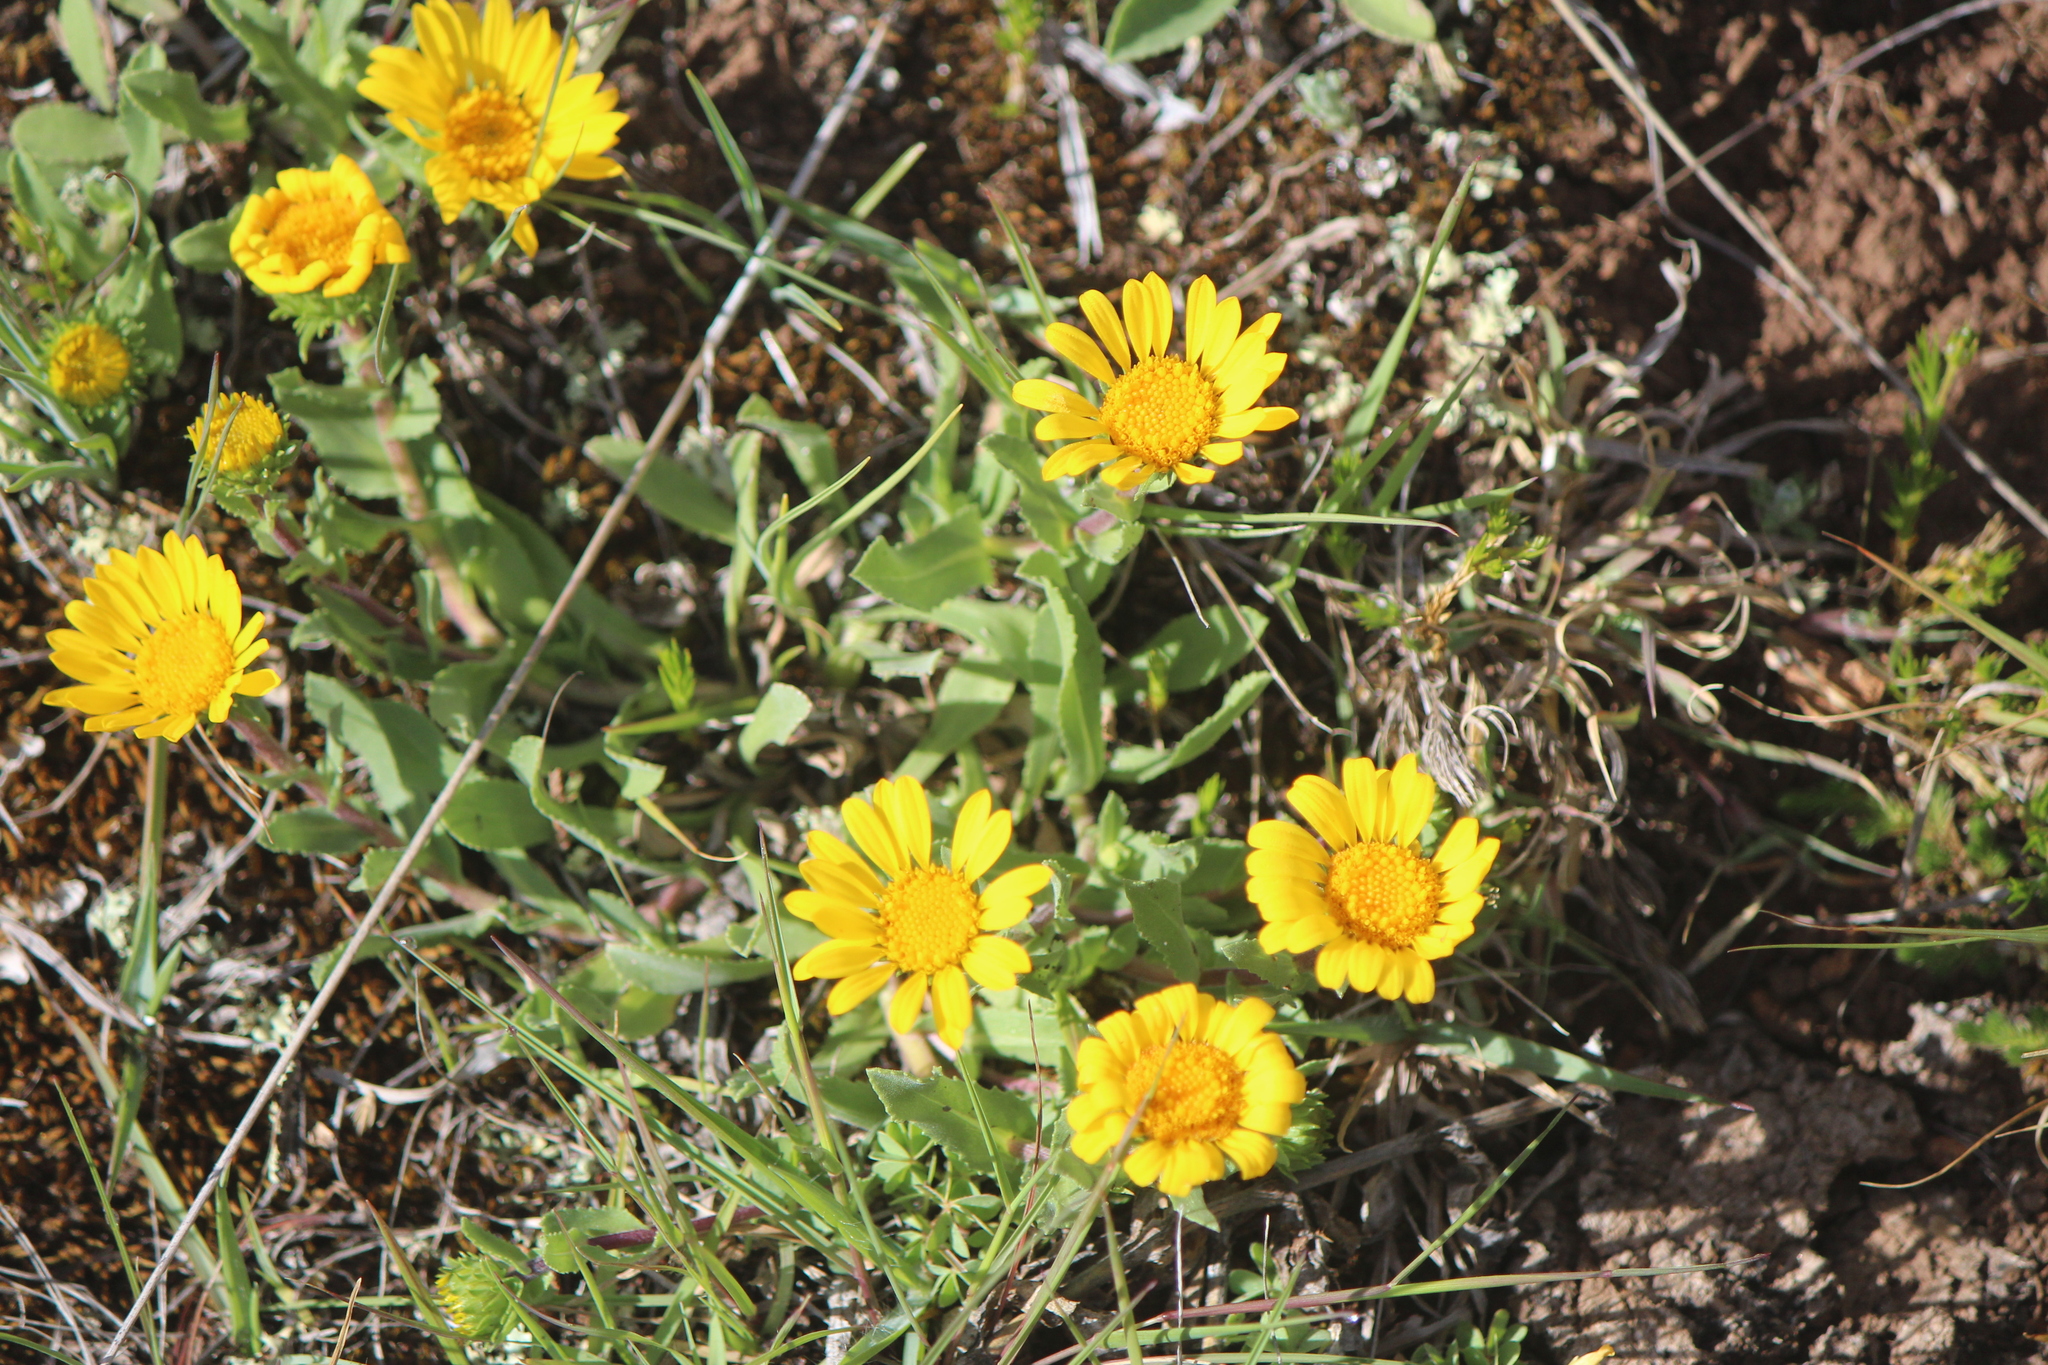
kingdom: Plantae
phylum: Tracheophyta
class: Magnoliopsida
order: Asterales
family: Asteraceae
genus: Grindelia
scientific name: Grindelia inuloides
